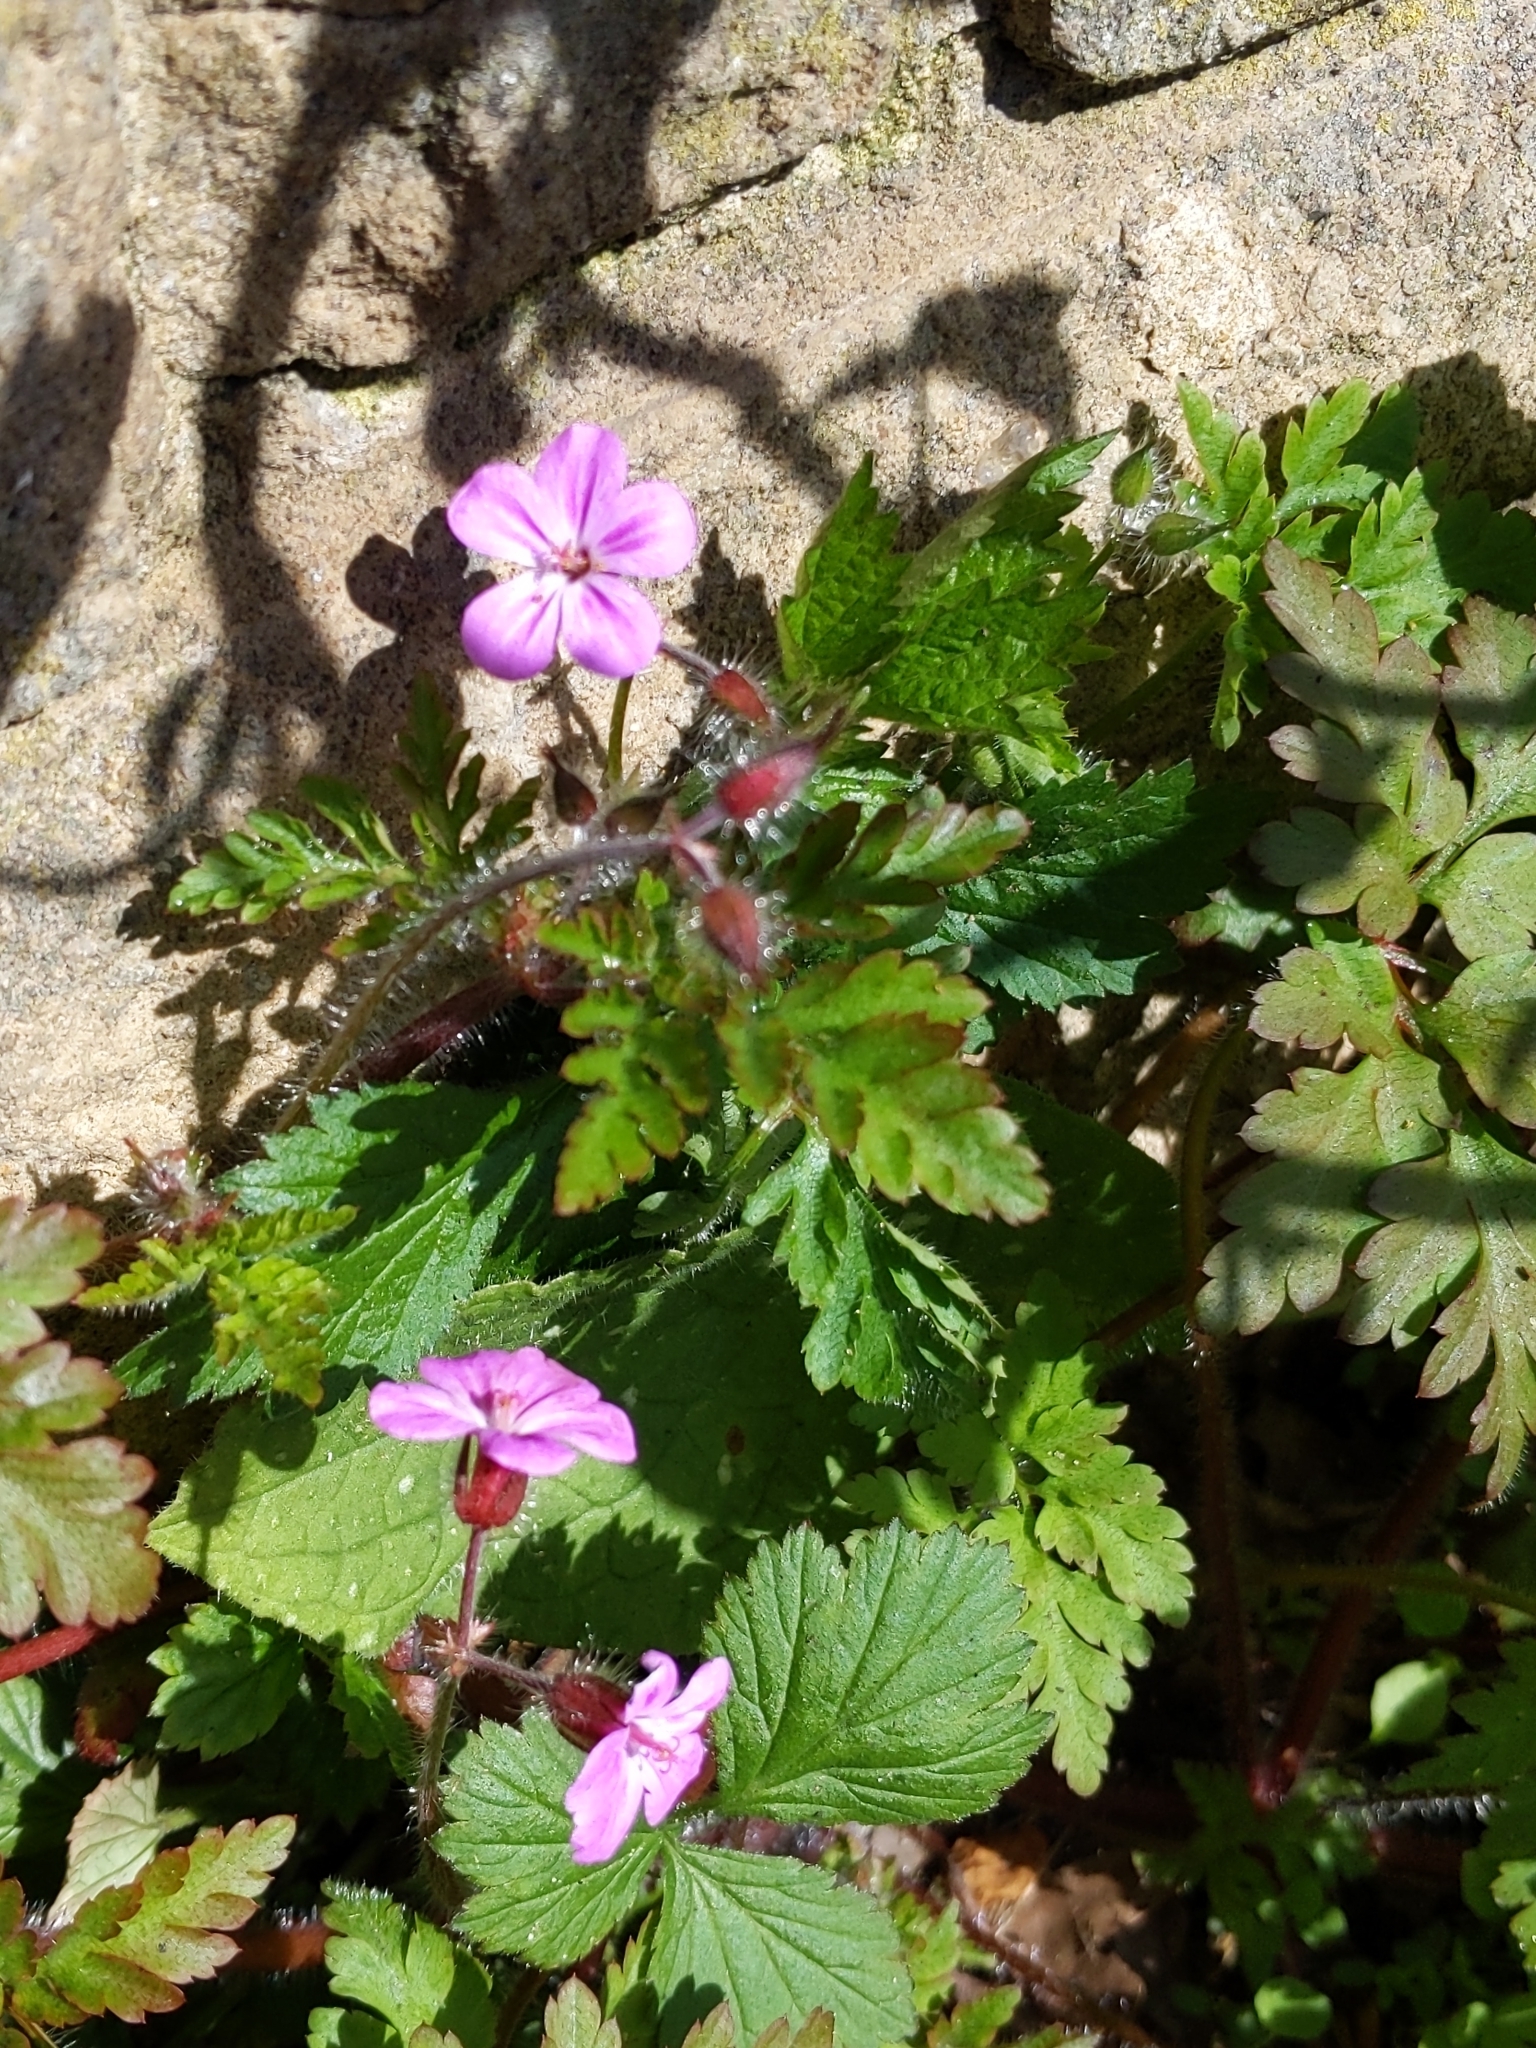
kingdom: Plantae
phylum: Tracheophyta
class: Magnoliopsida
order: Geraniales
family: Geraniaceae
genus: Geranium
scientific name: Geranium robertianum
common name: Herb-robert
